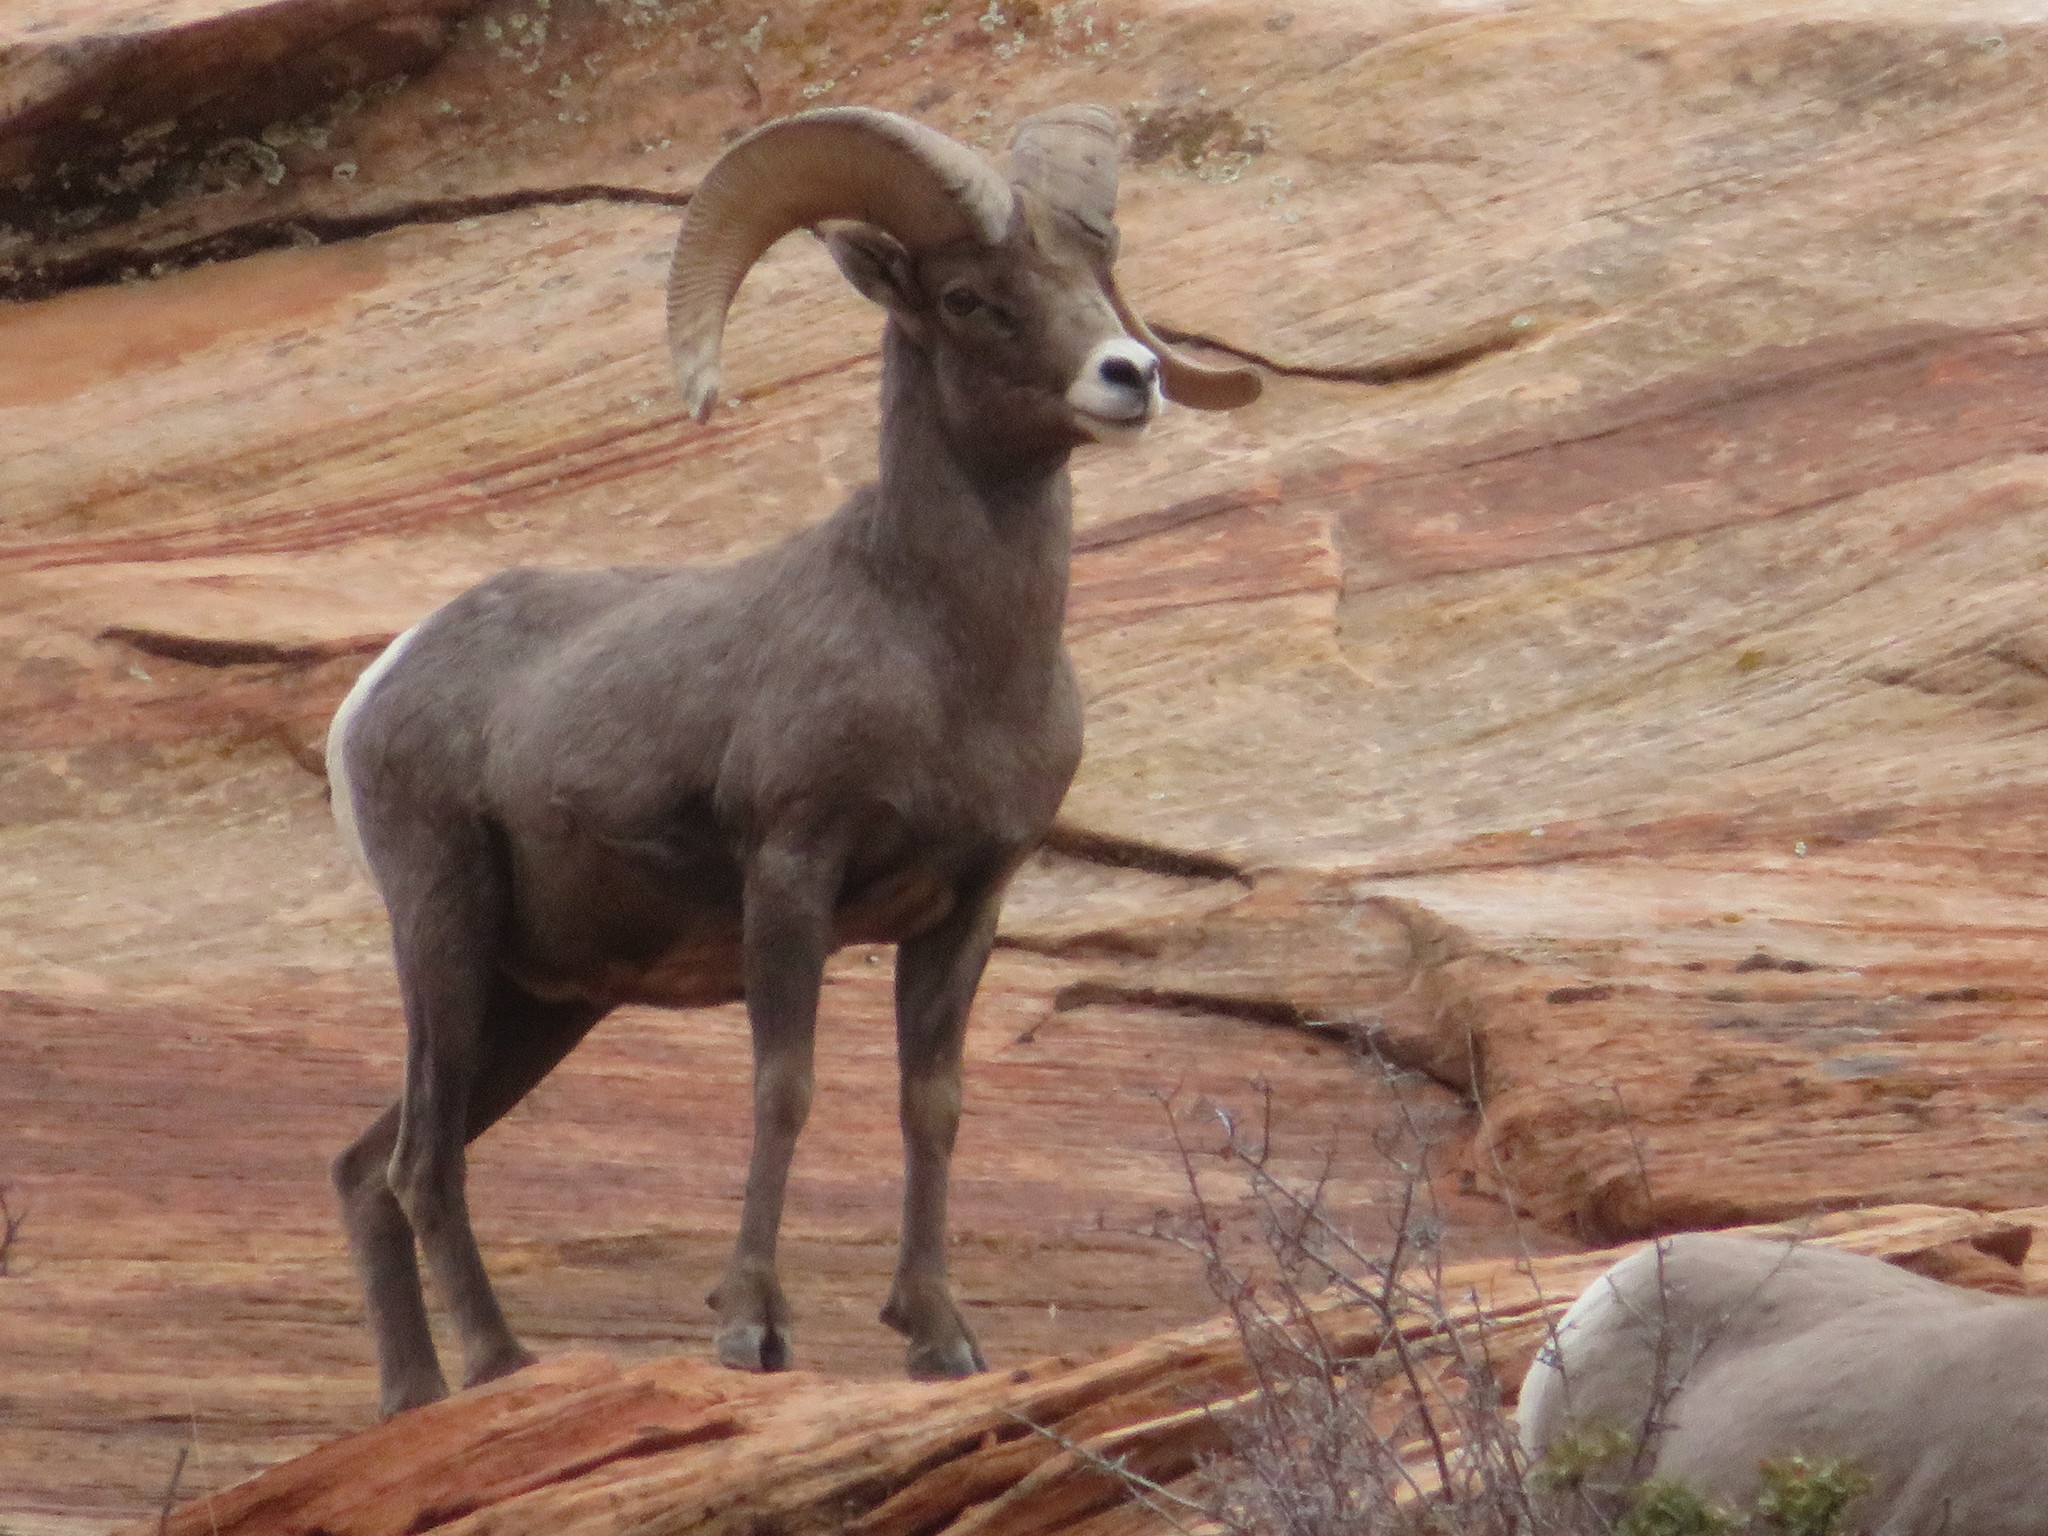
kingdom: Animalia
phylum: Chordata
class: Mammalia
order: Artiodactyla
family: Bovidae
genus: Ovis
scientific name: Ovis canadensis
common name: Bighorn sheep
